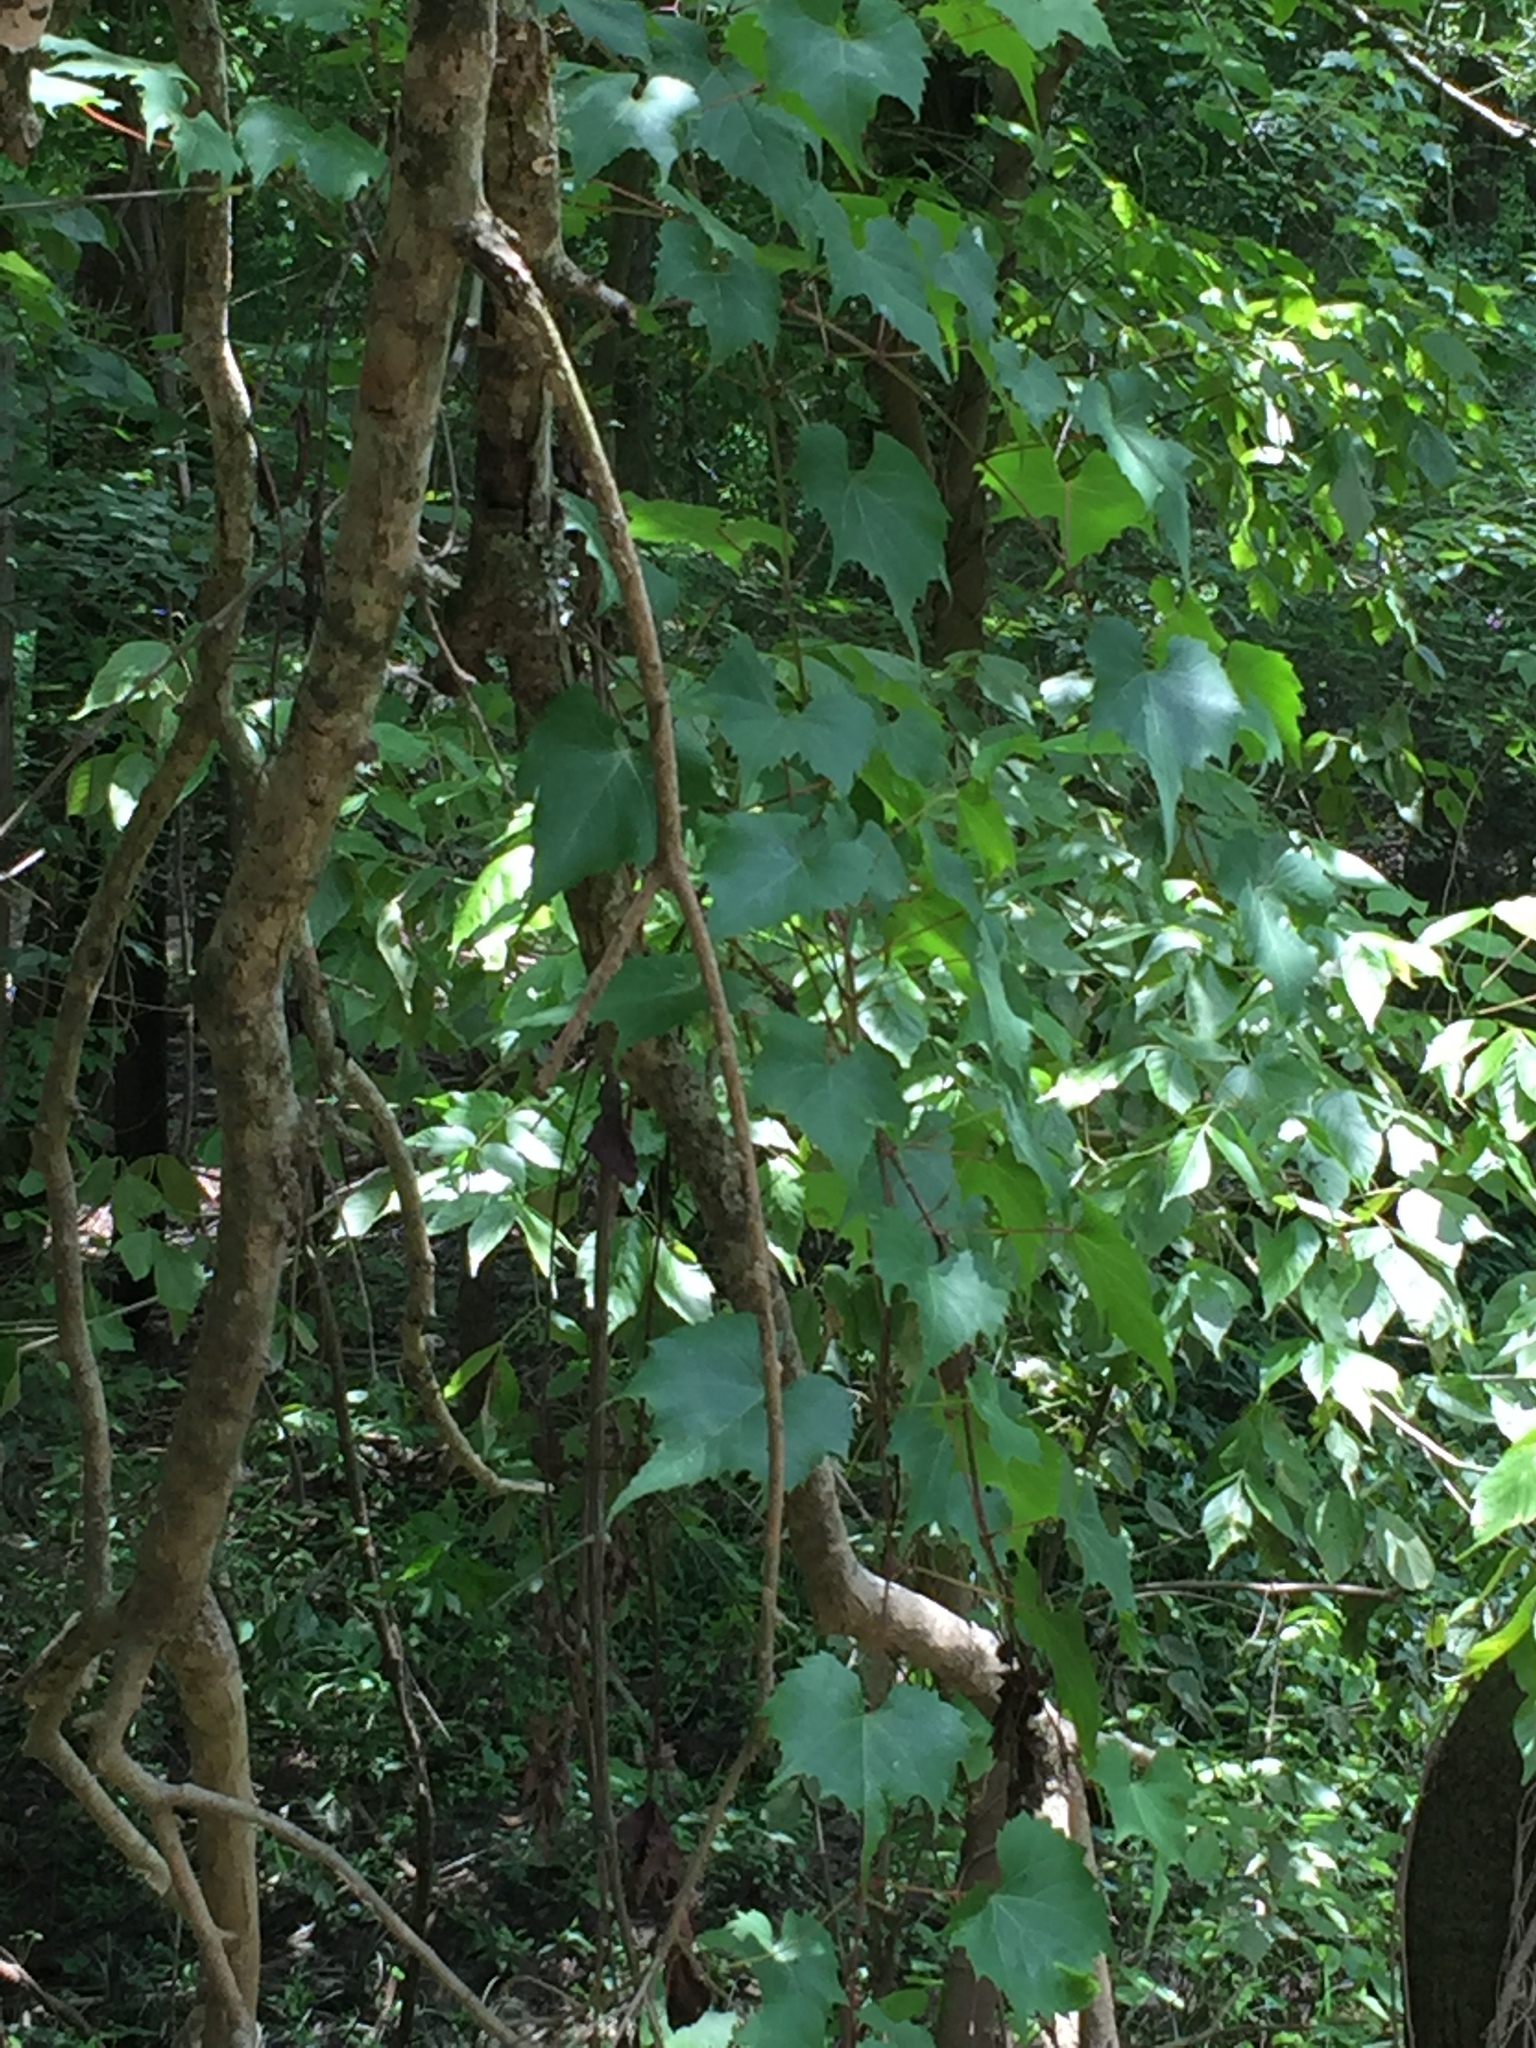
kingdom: Plantae
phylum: Tracheophyta
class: Magnoliopsida
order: Vitales
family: Vitaceae
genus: Vitis
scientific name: Vitis palmata
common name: Catbird grape
